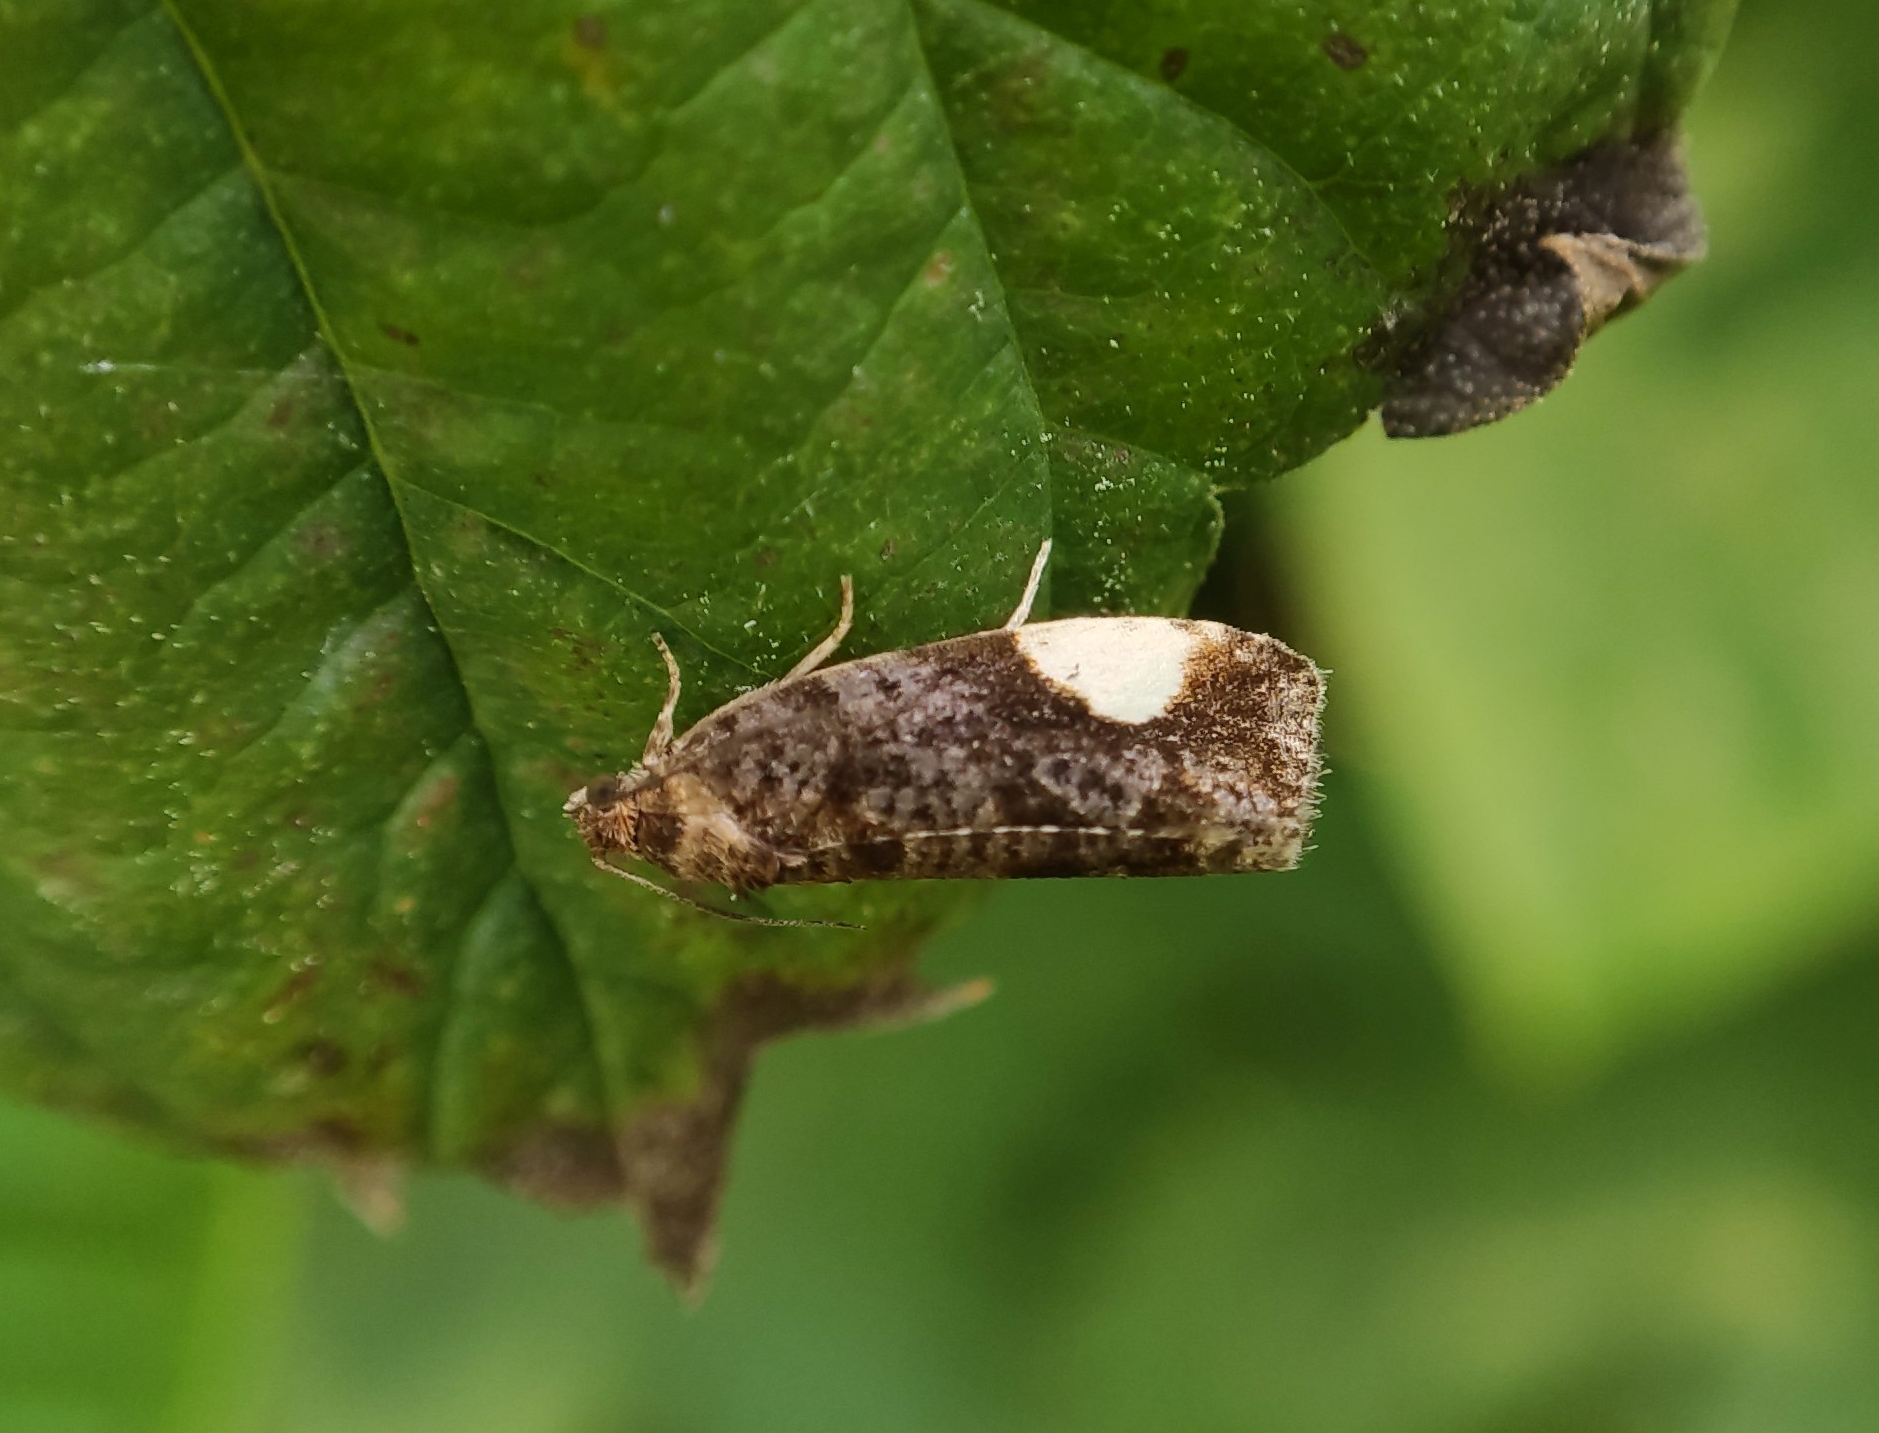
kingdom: Animalia
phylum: Arthropoda
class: Insecta
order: Lepidoptera
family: Tortricidae
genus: Hedya
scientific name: Hedya dimidiana
